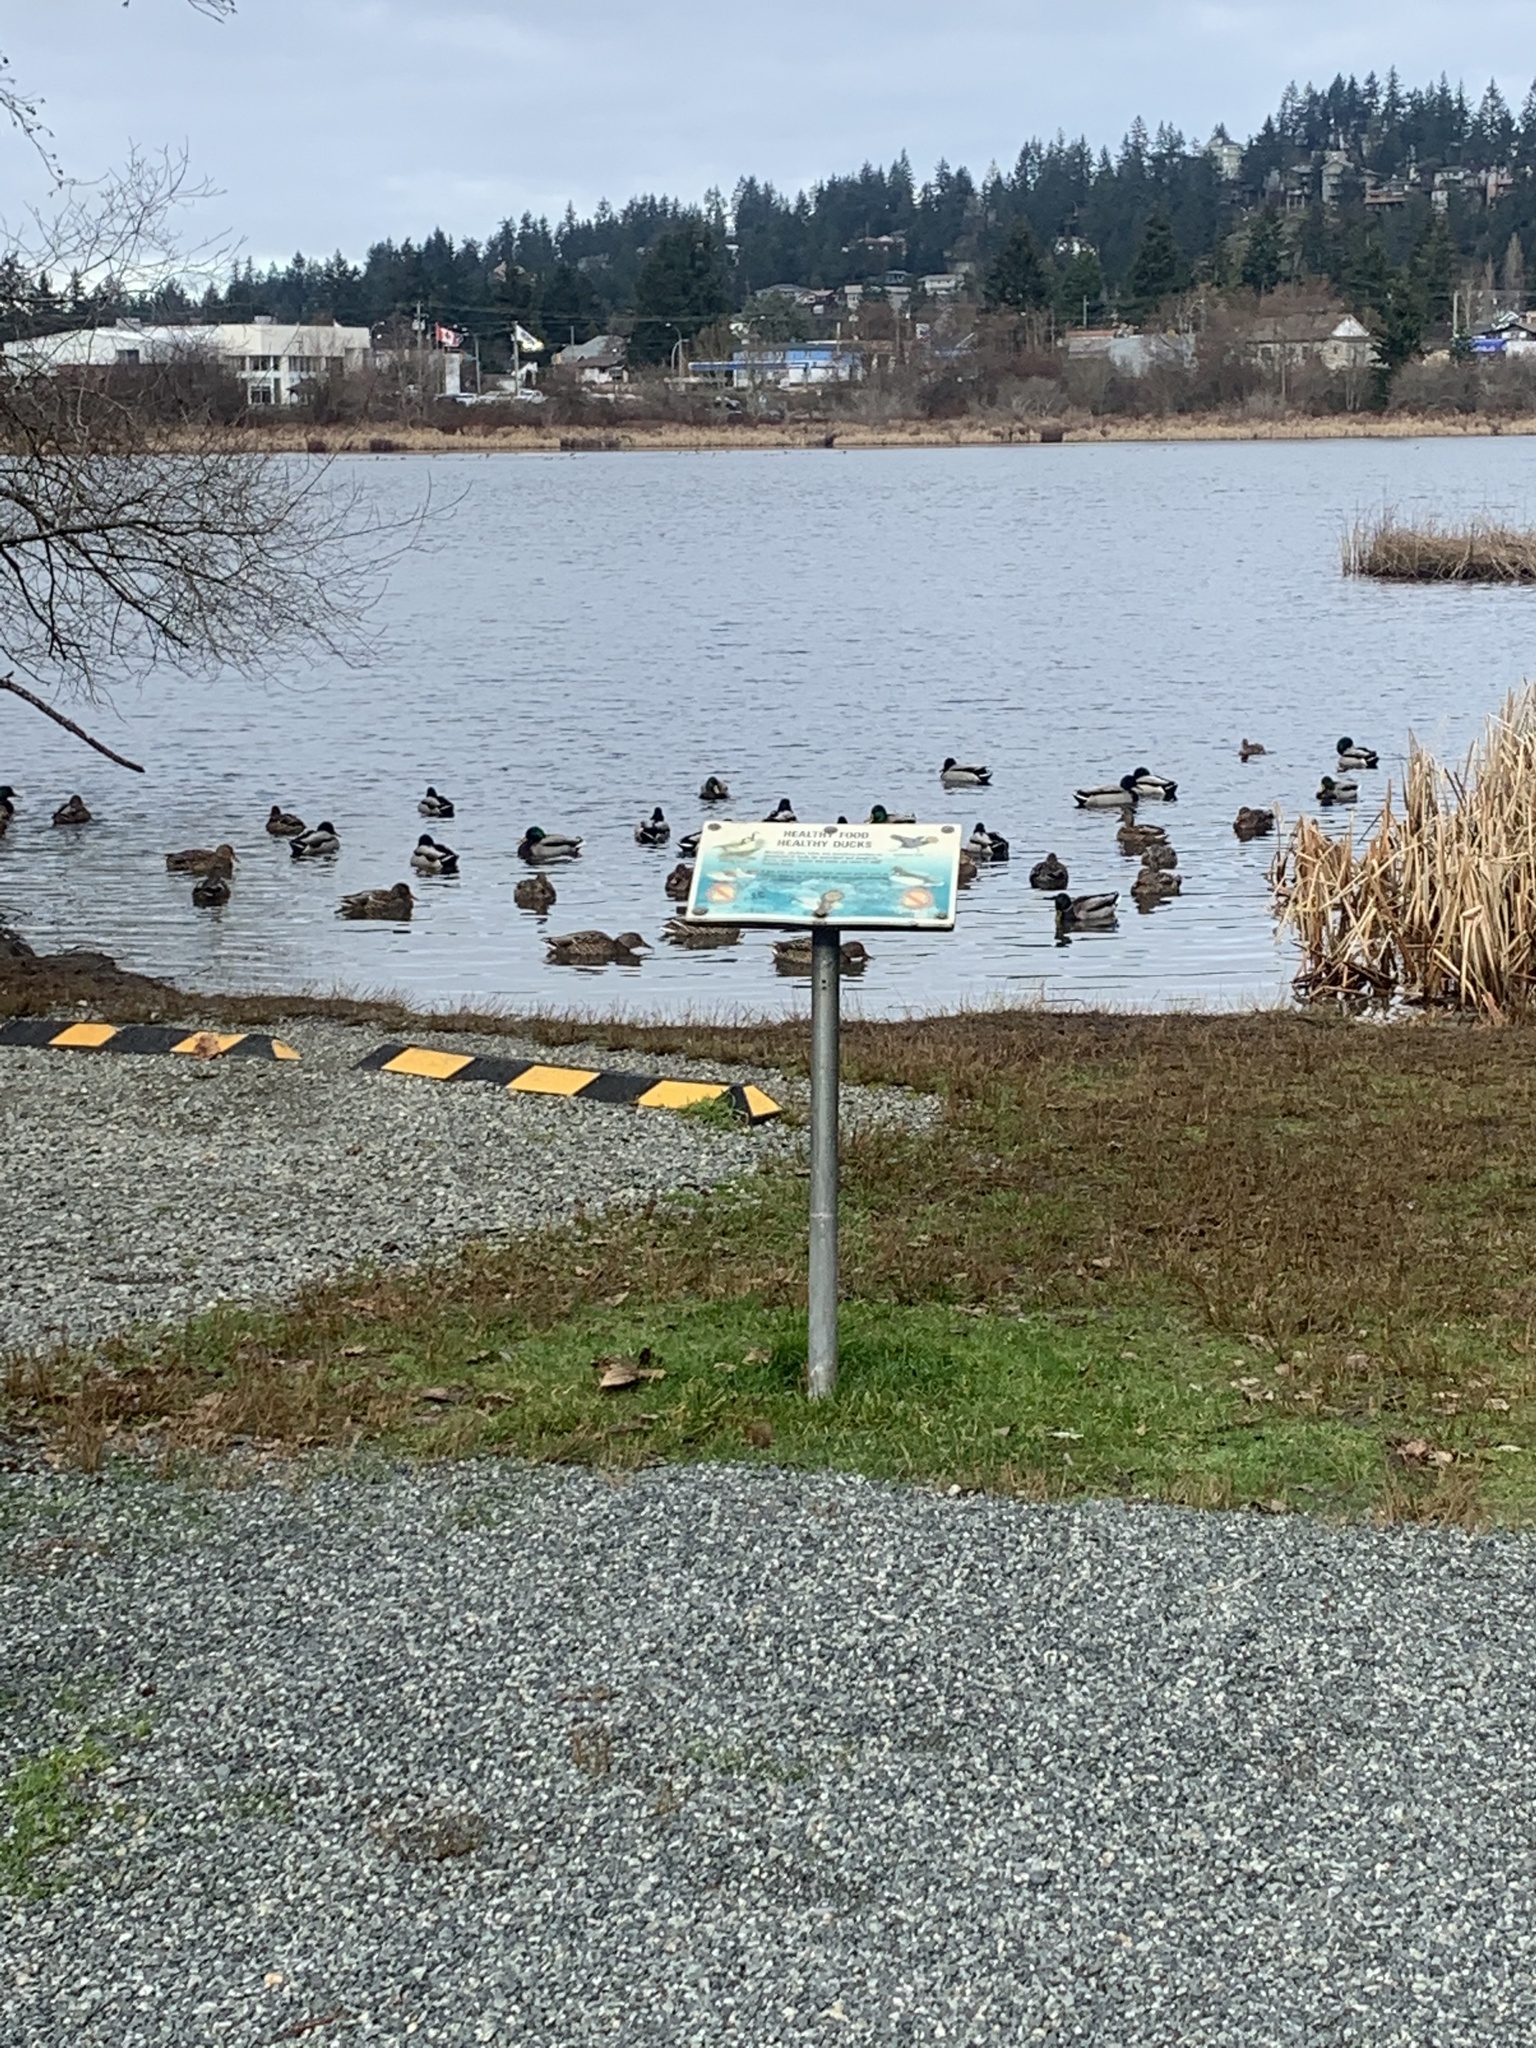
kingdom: Animalia
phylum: Chordata
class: Aves
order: Anseriformes
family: Anatidae
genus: Anas
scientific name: Anas platyrhynchos
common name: Mallard
